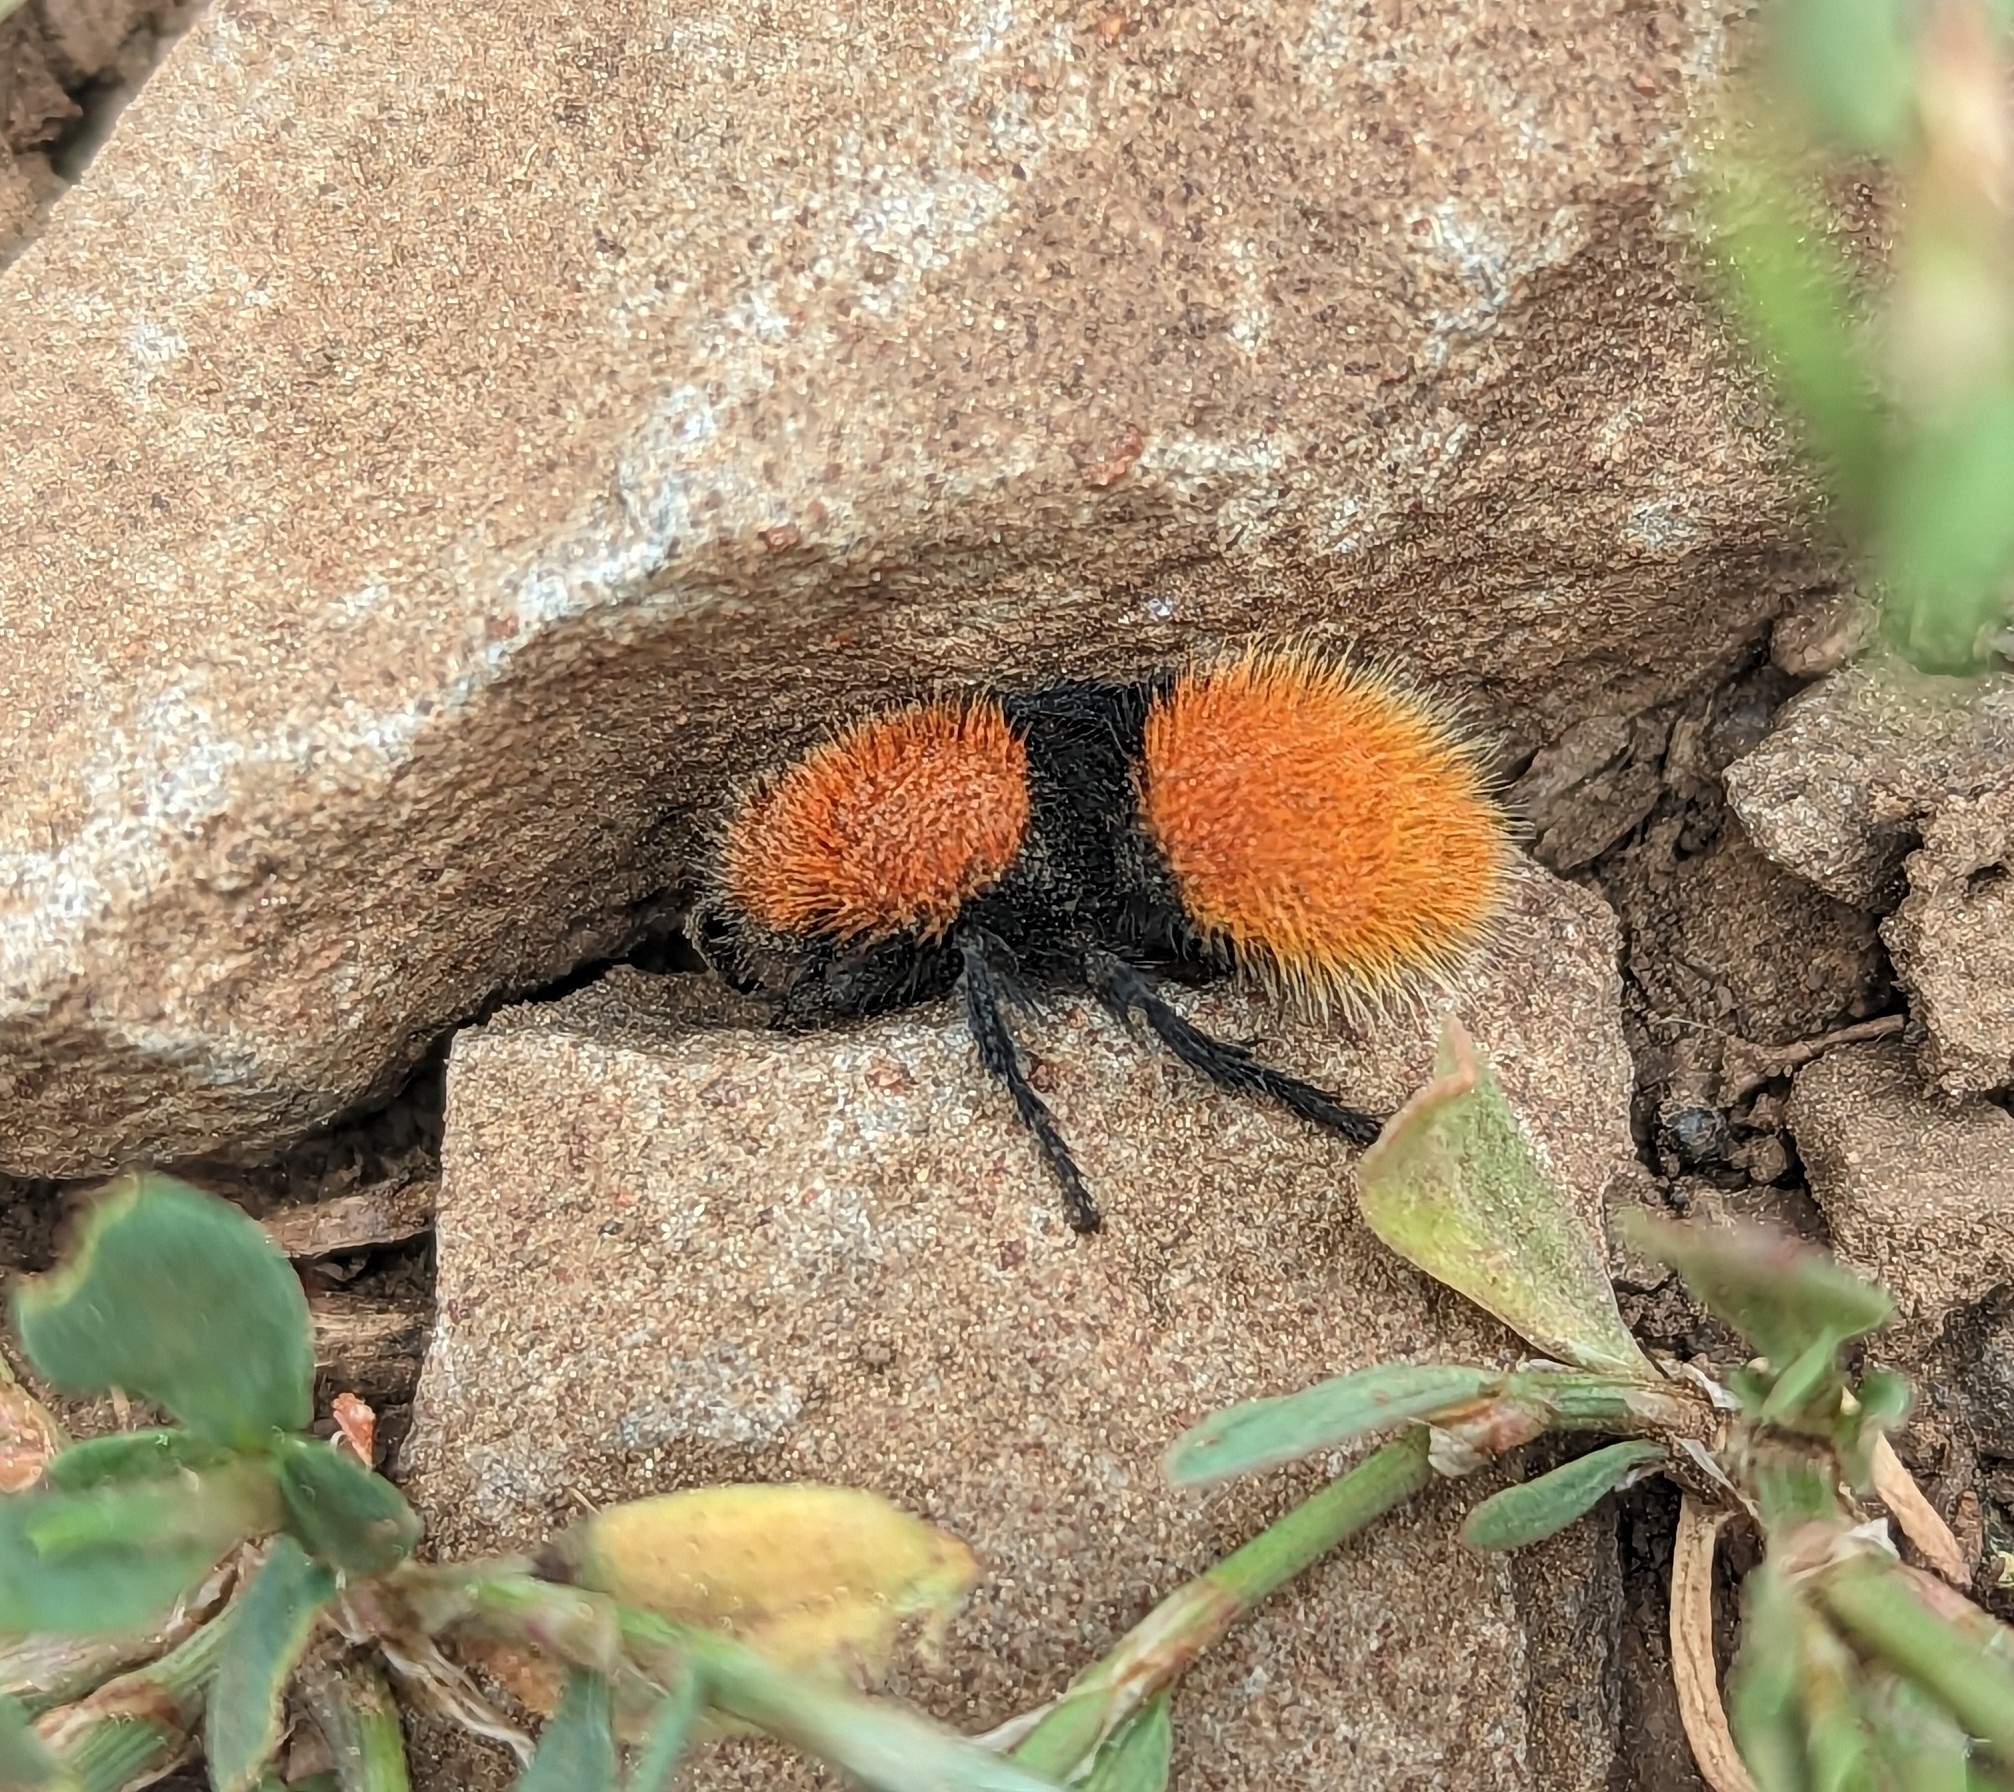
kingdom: Animalia
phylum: Arthropoda
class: Insecta
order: Hymenoptera
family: Mutillidae
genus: Dasymutilla
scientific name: Dasymutilla vestita
